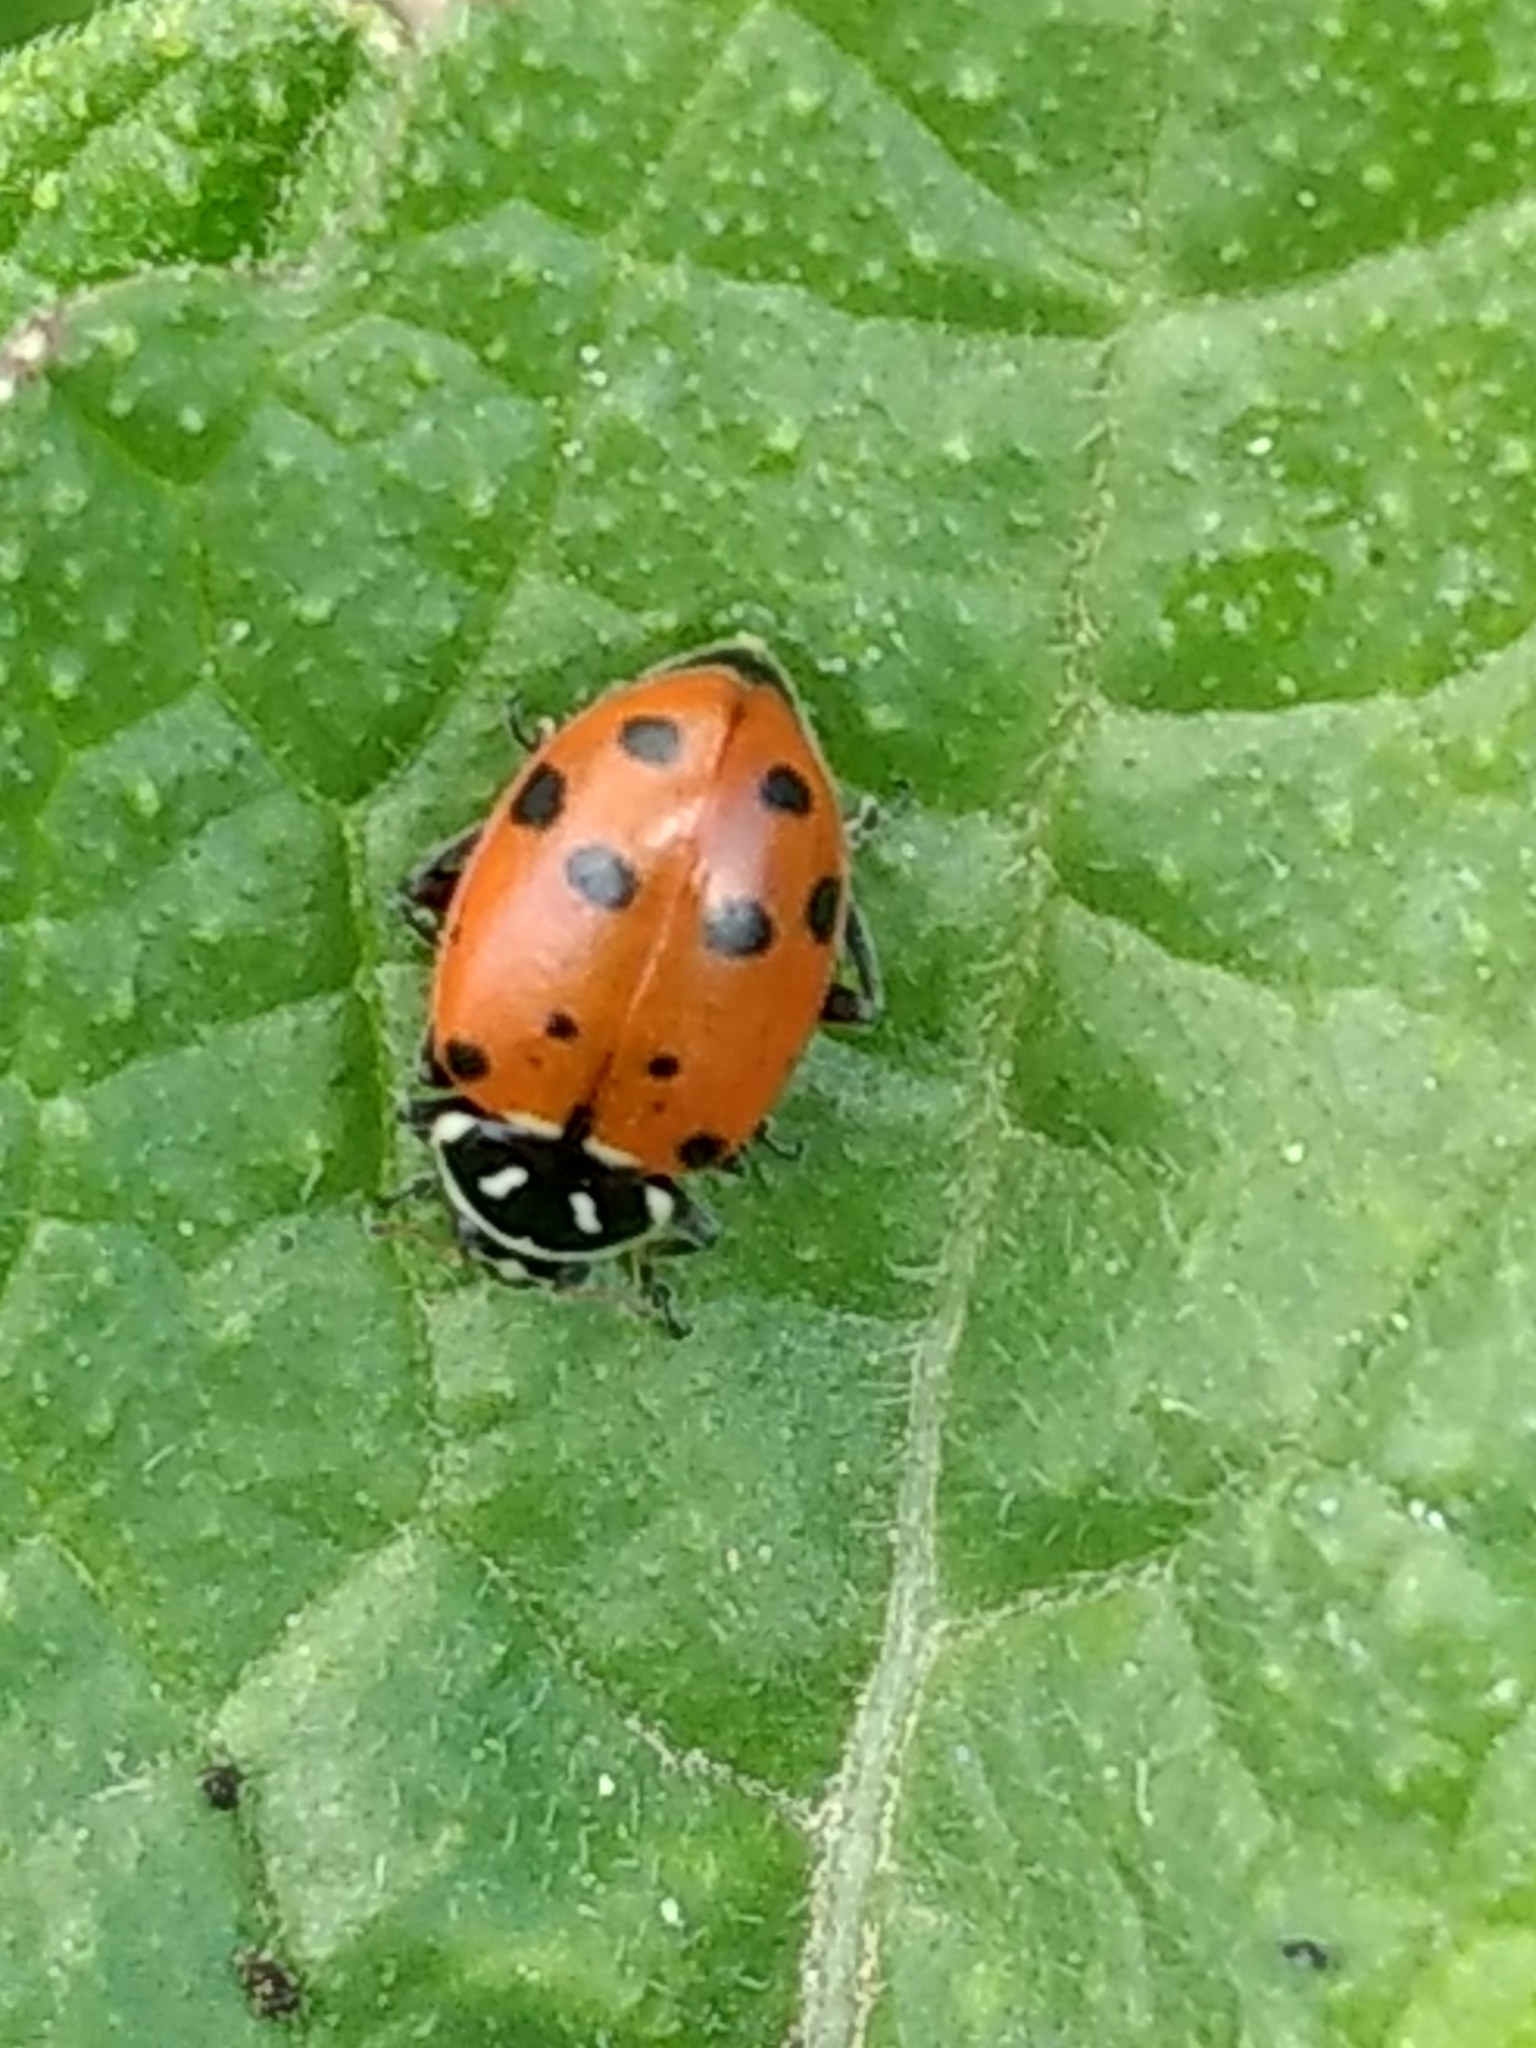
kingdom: Animalia
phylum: Arthropoda
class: Insecta
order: Coleoptera
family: Coccinellidae
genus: Hippodamia
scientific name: Hippodamia convergens
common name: Convergent lady beetle
